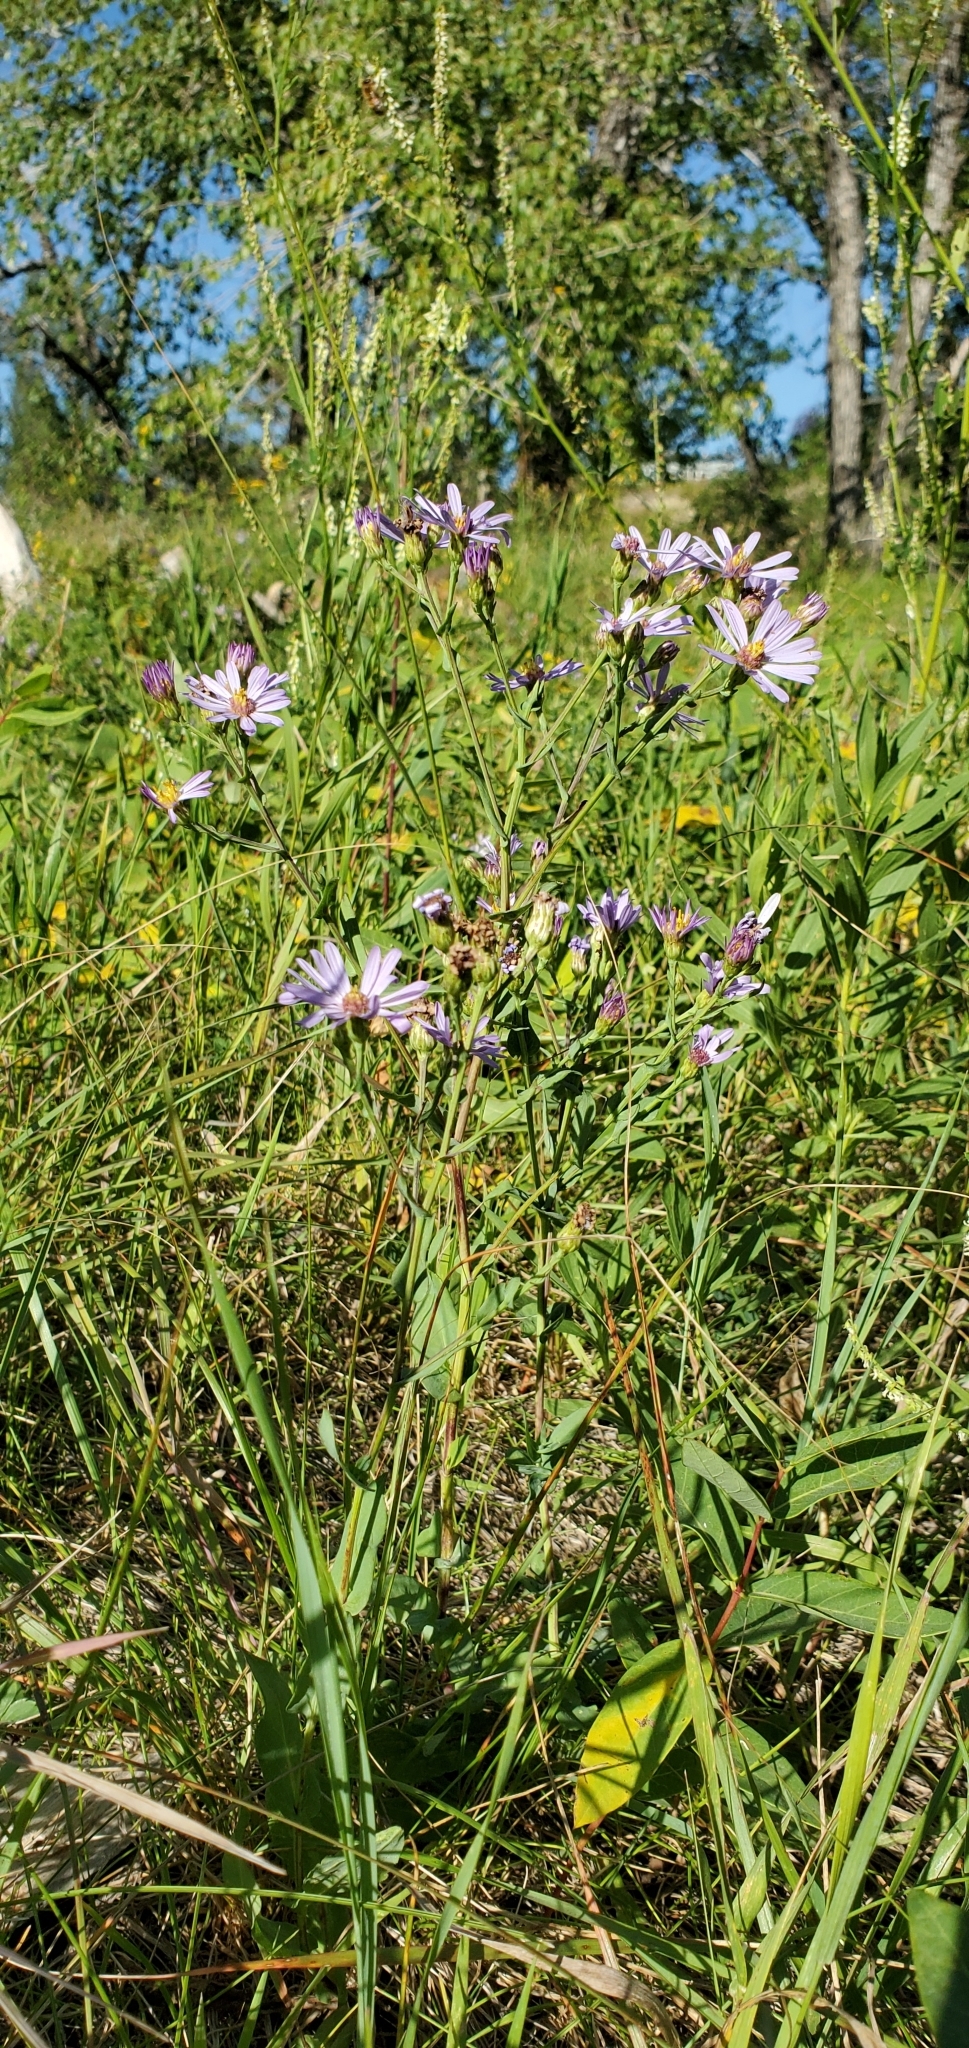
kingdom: Plantae
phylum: Tracheophyta
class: Magnoliopsida
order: Asterales
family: Asteraceae
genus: Symphyotrichum
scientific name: Symphyotrichum laeve
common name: Glaucous aster
